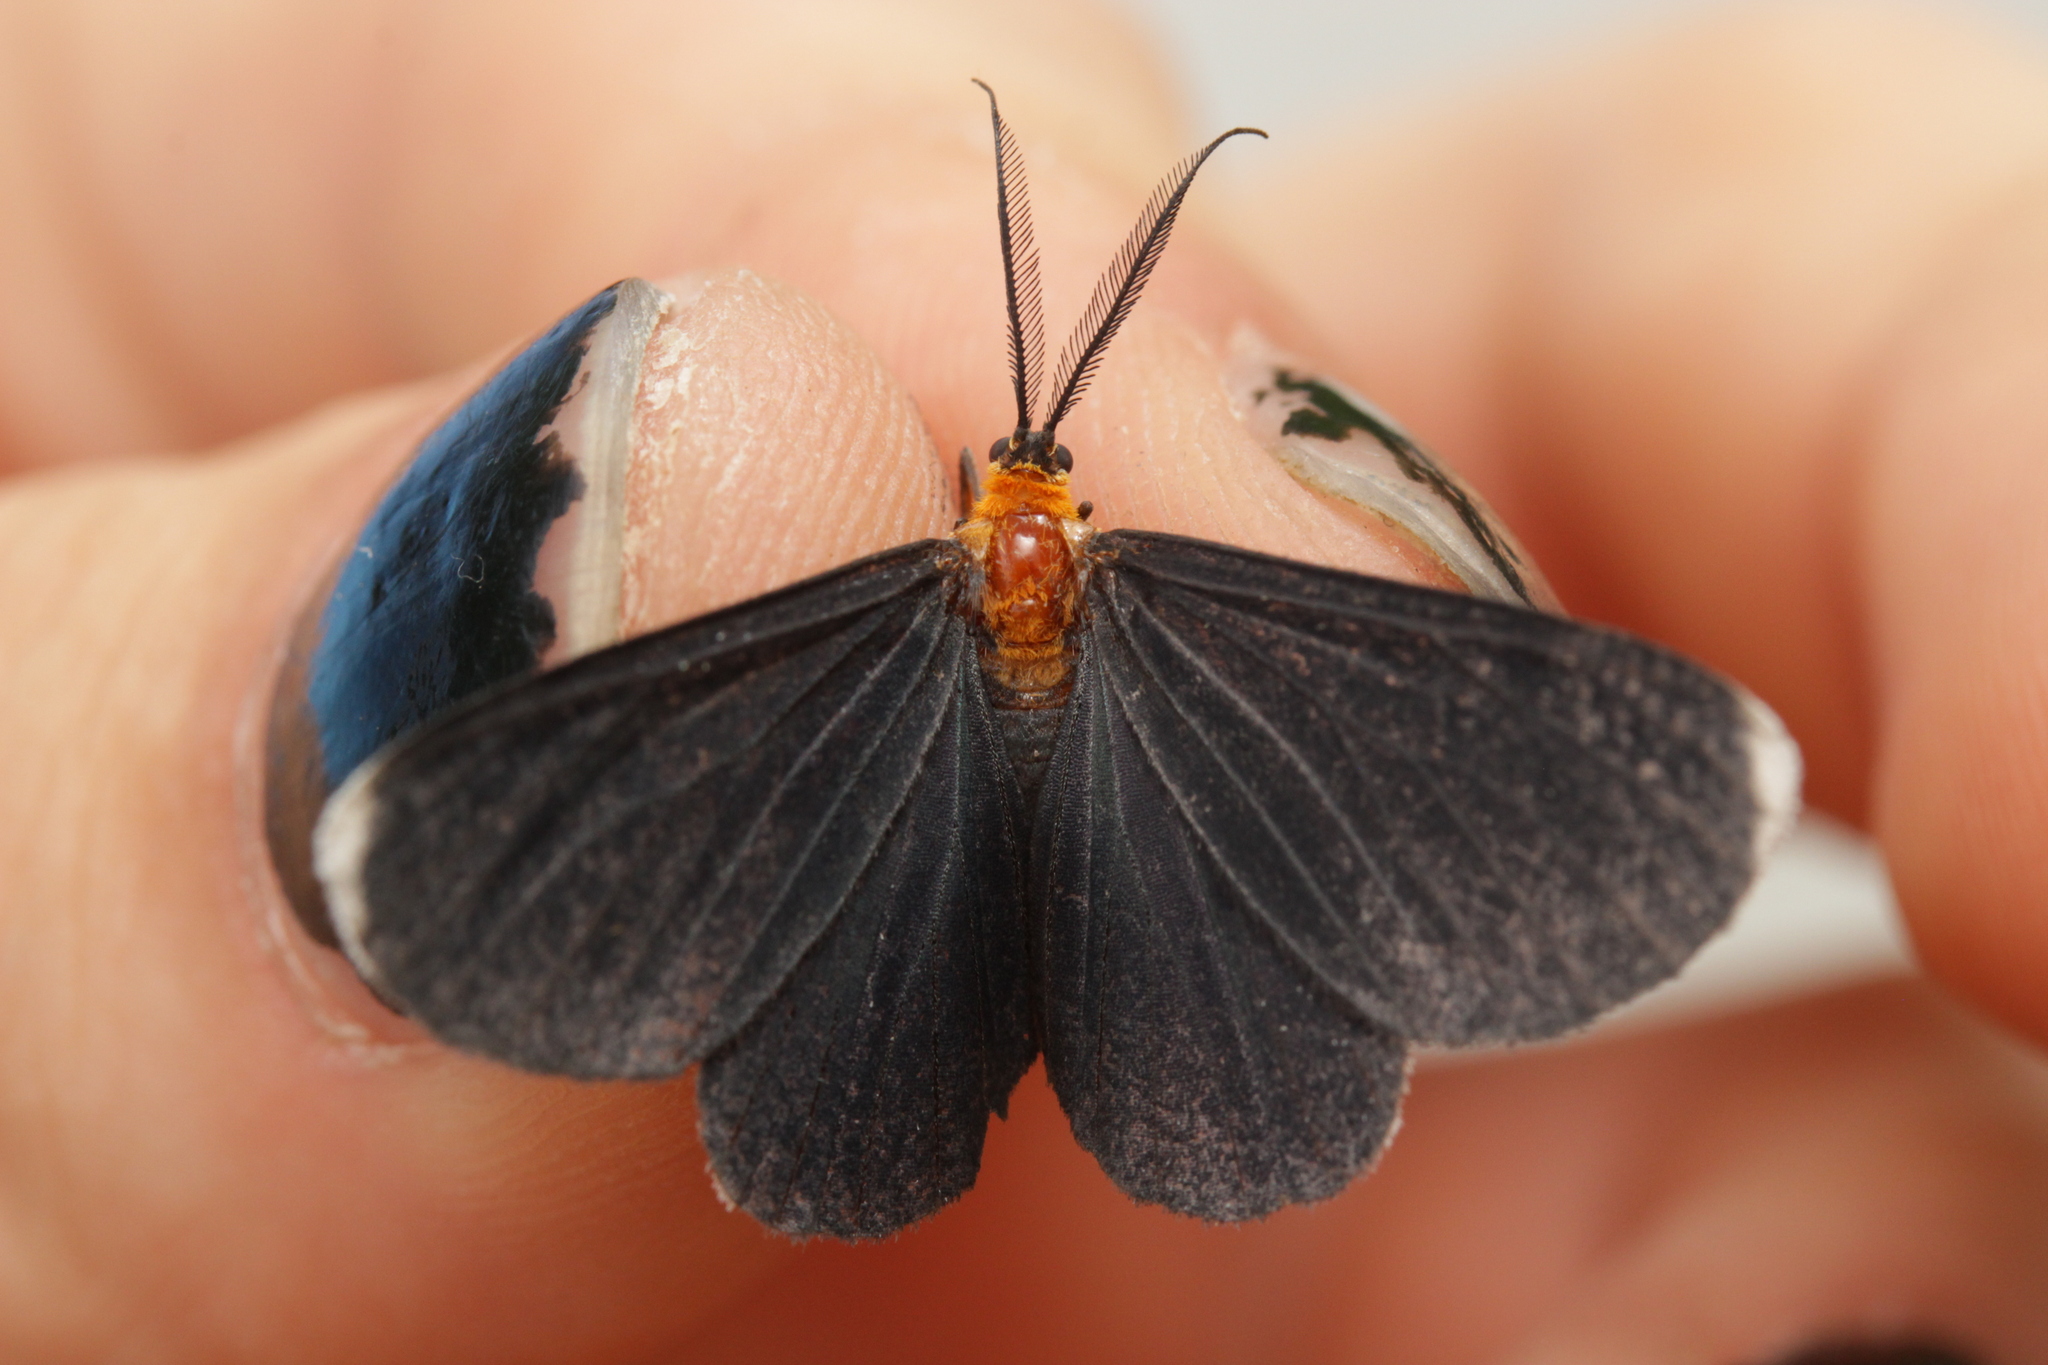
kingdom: Animalia
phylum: Arthropoda
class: Insecta
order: Lepidoptera
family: Geometridae
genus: Melanchroia
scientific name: Melanchroia chephise
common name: White-tipped black
